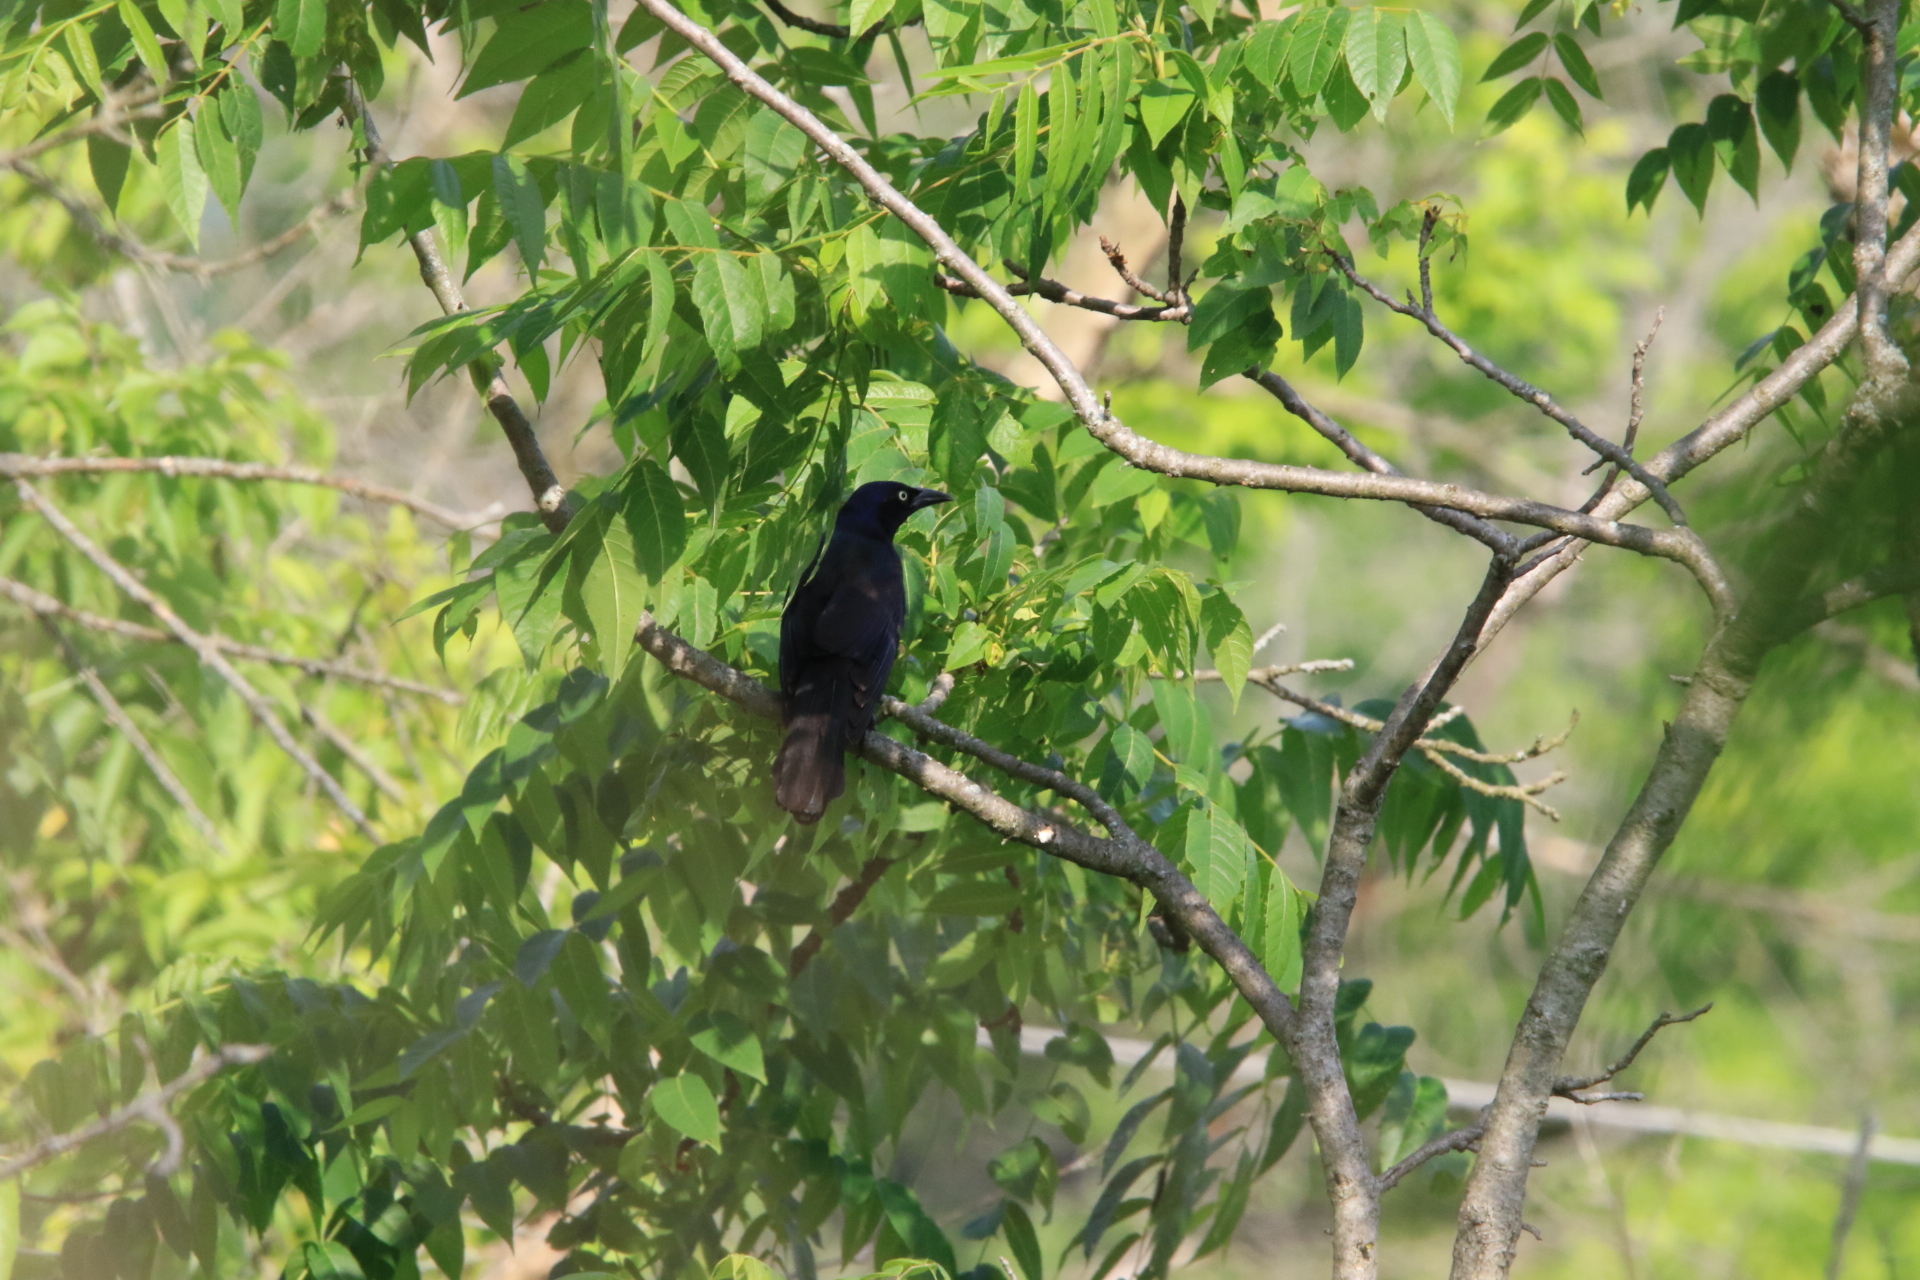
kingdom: Animalia
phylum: Chordata
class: Aves
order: Passeriformes
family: Icteridae
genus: Quiscalus
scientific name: Quiscalus quiscula
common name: Common grackle
